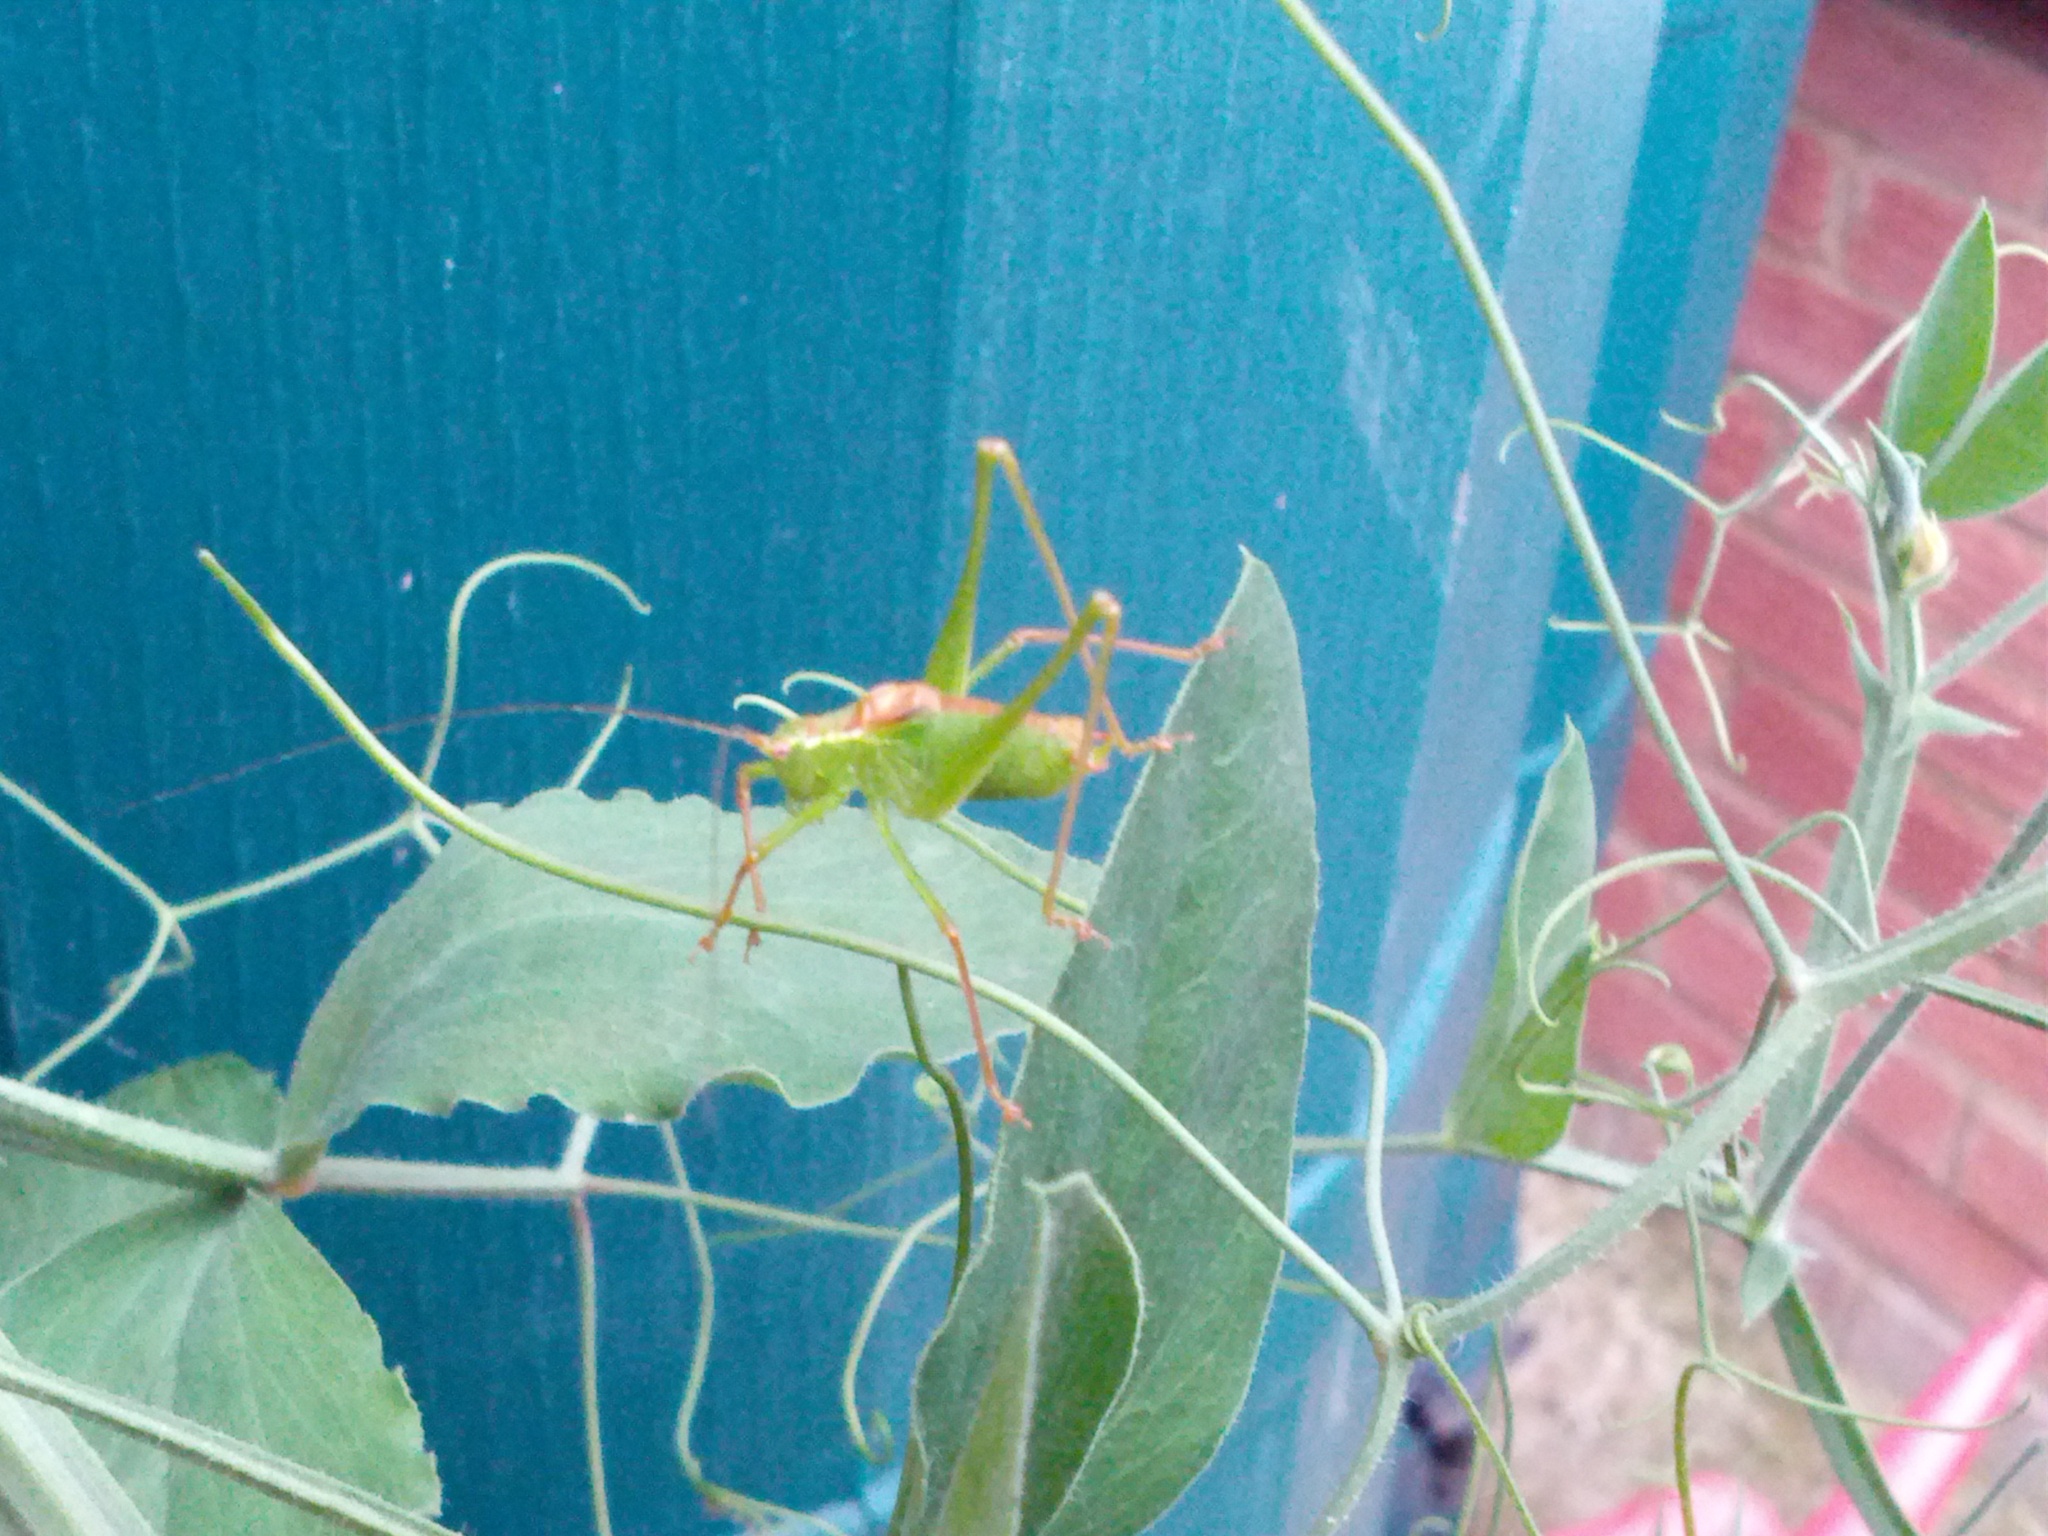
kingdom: Animalia
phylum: Arthropoda
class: Insecta
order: Orthoptera
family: Tettigoniidae
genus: Leptophyes
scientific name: Leptophyes punctatissima
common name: Speckled bush-cricket
